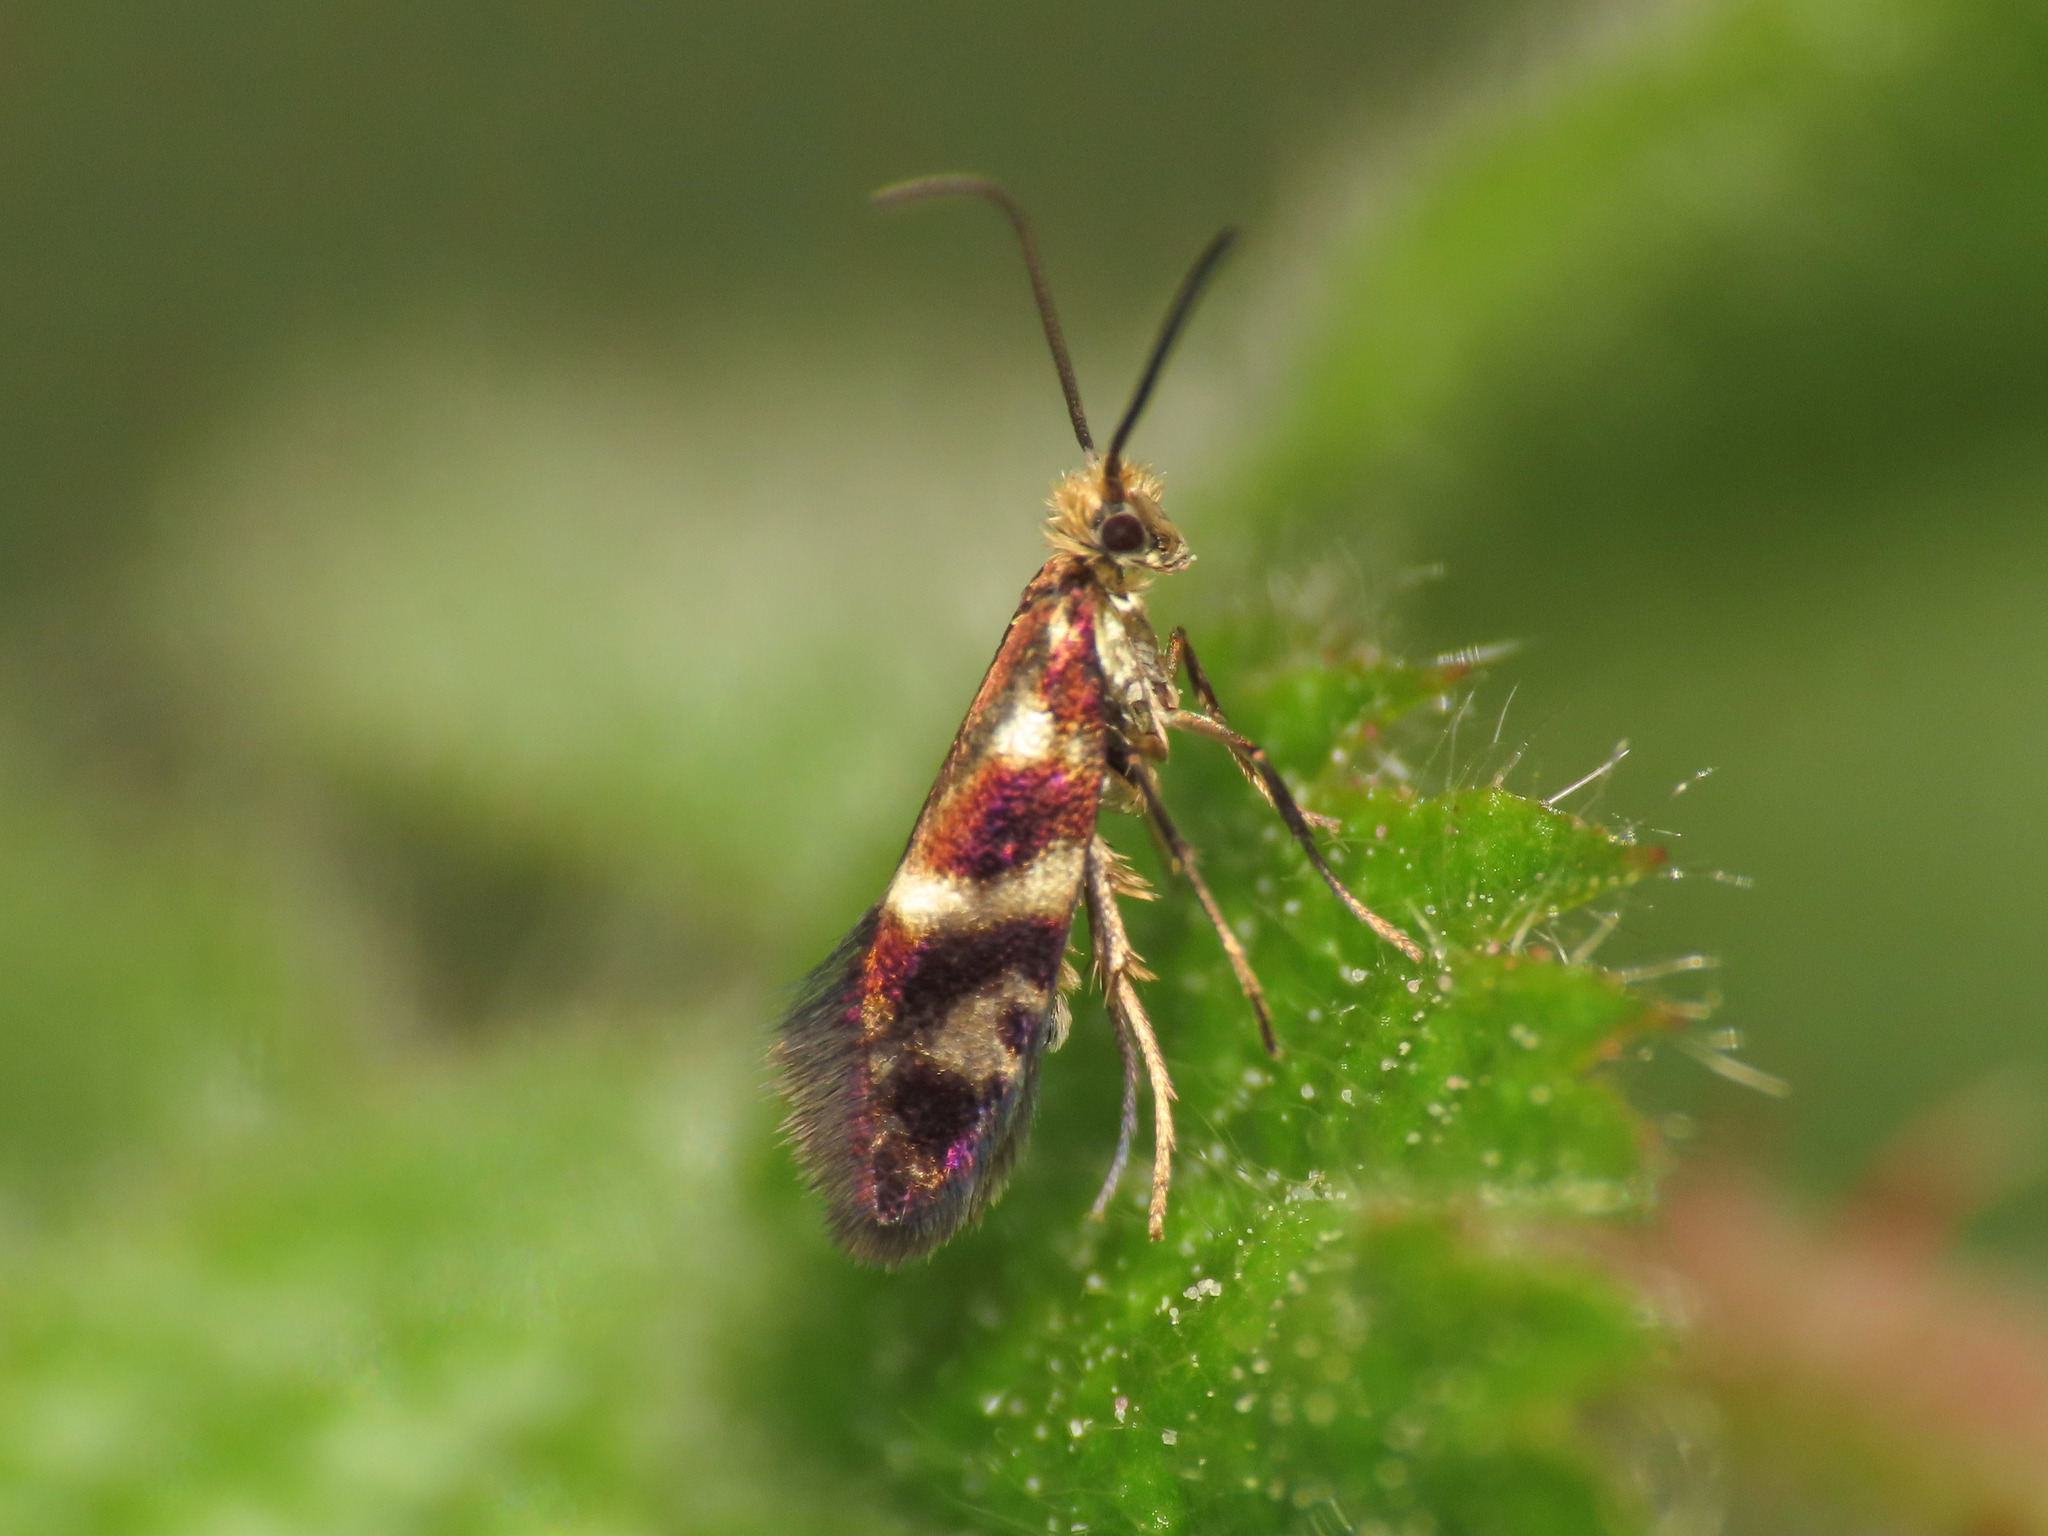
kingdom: Animalia
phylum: Arthropoda
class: Insecta
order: Lepidoptera
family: Micropterigidae
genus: Micropterix
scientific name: Micropterix vulturensis
